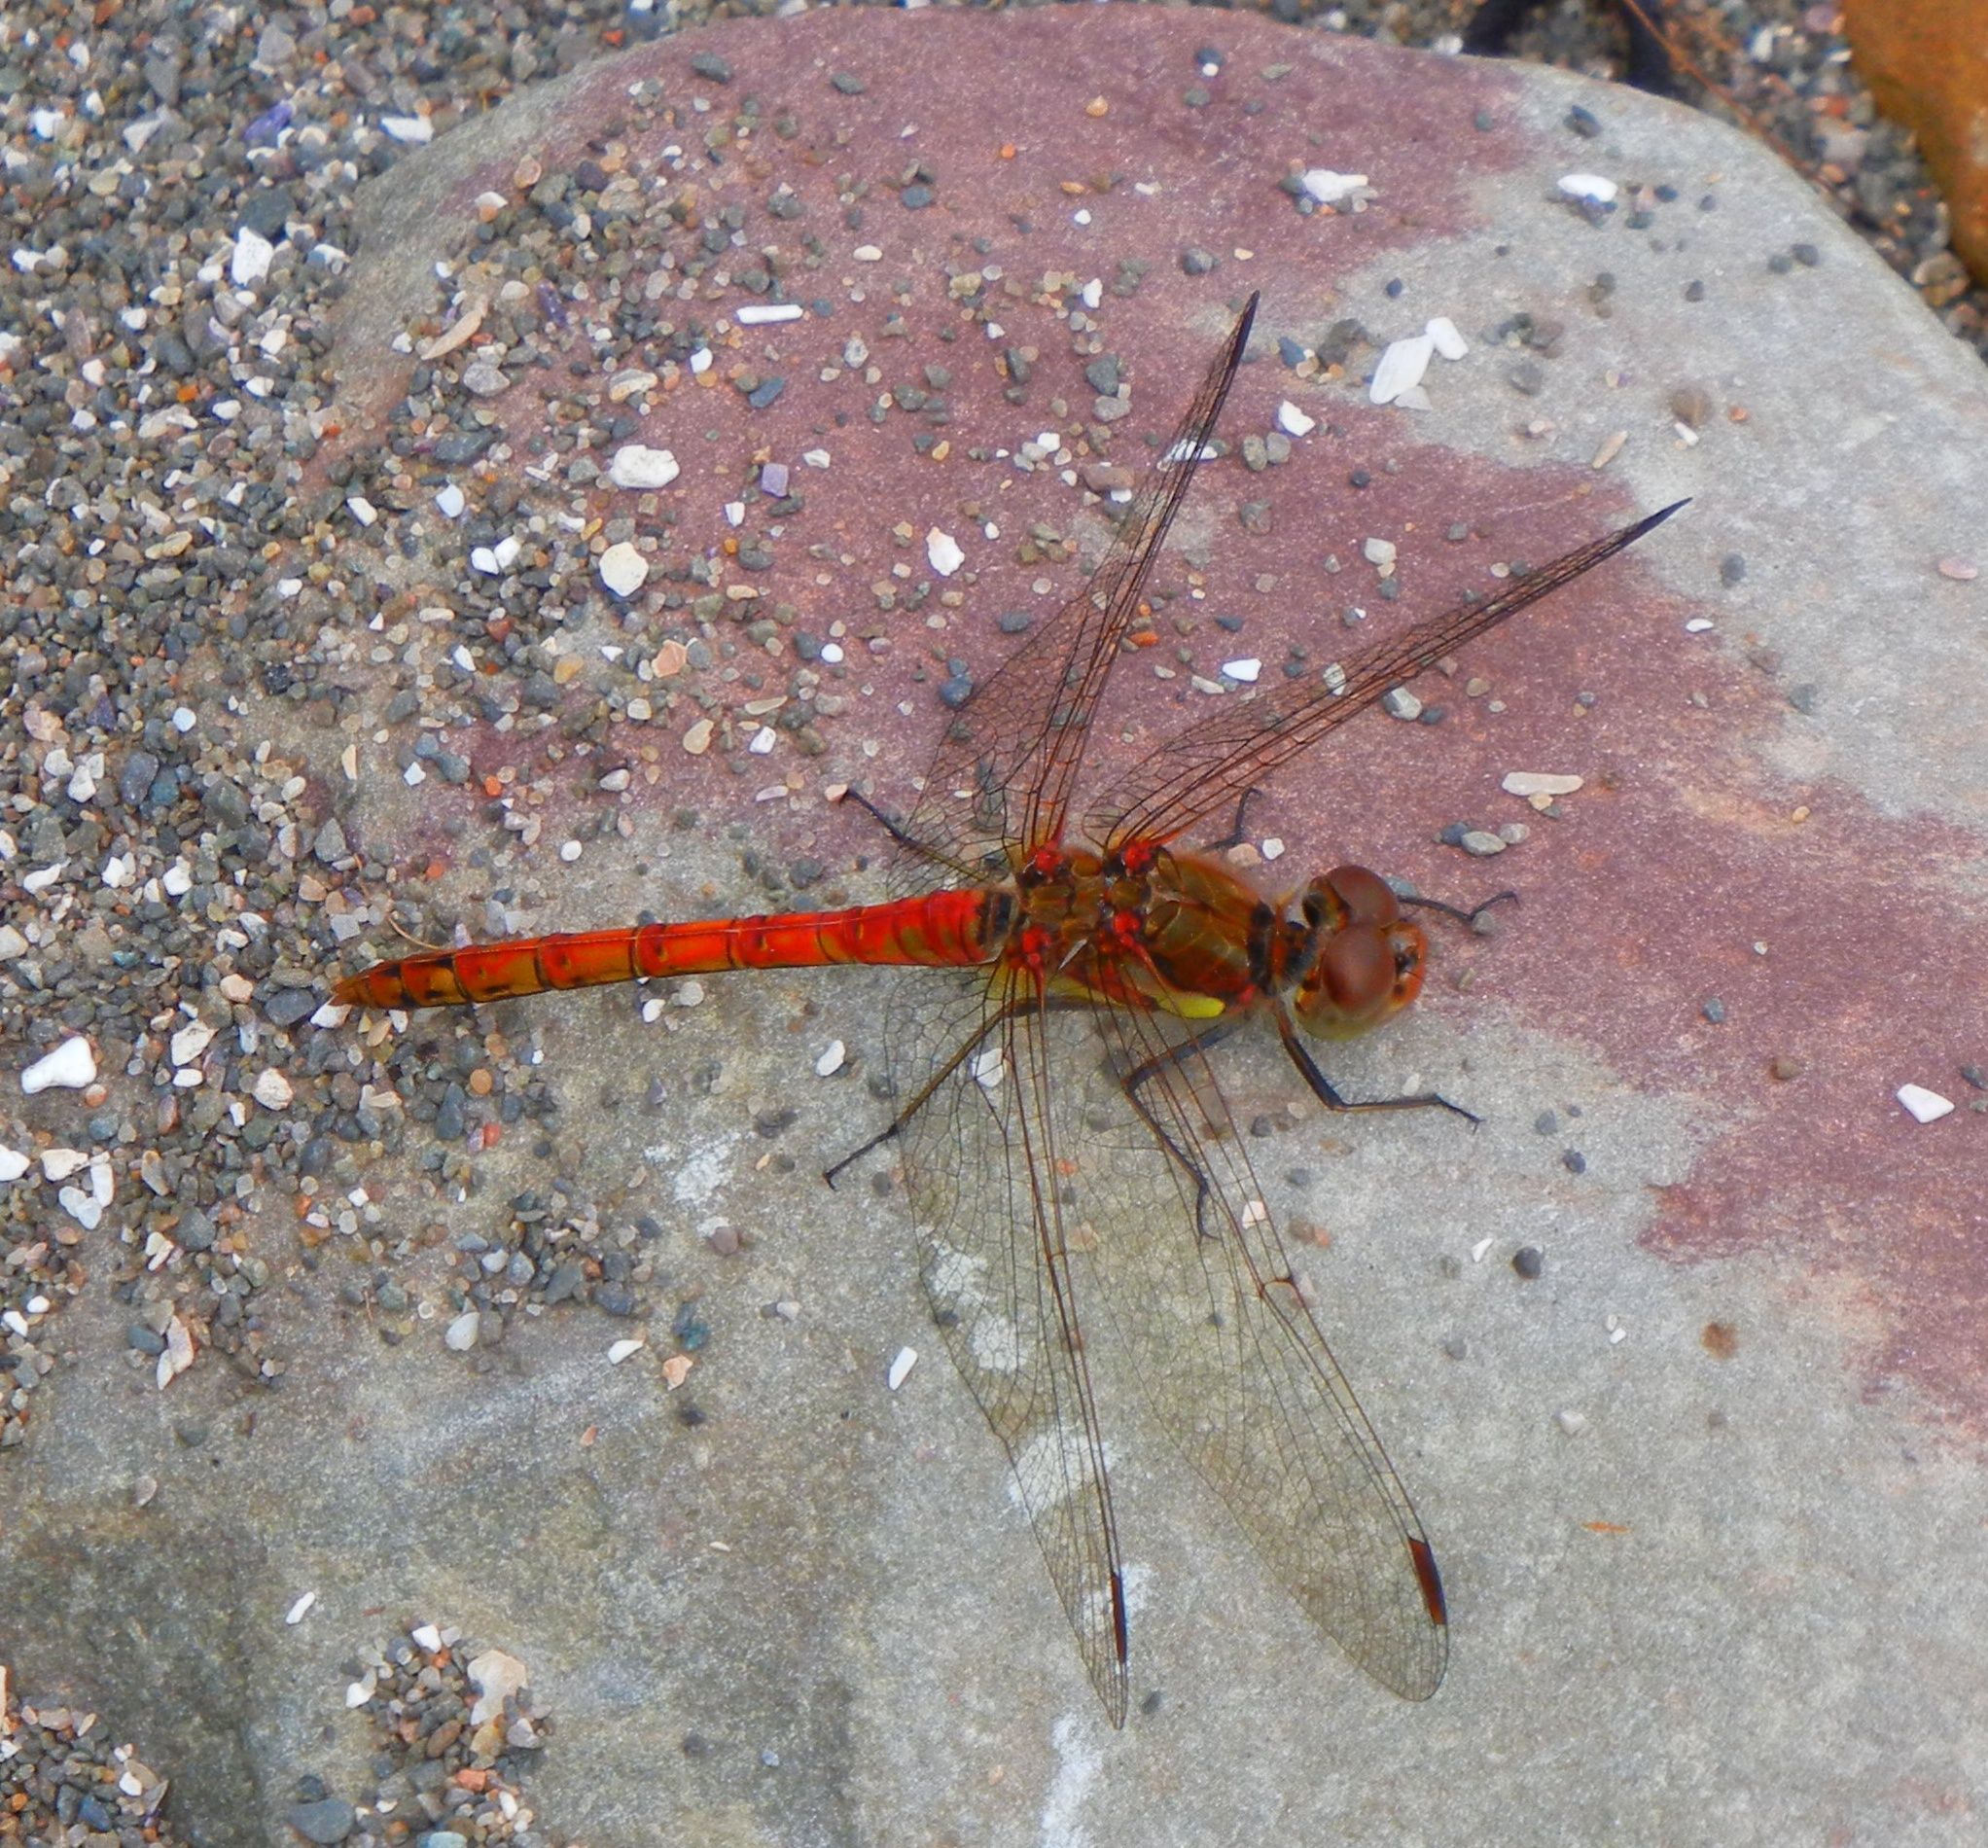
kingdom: Animalia
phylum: Arthropoda
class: Insecta
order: Odonata
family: Libellulidae
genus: Sympetrum
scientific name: Sympetrum striolatum
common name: Common darter
